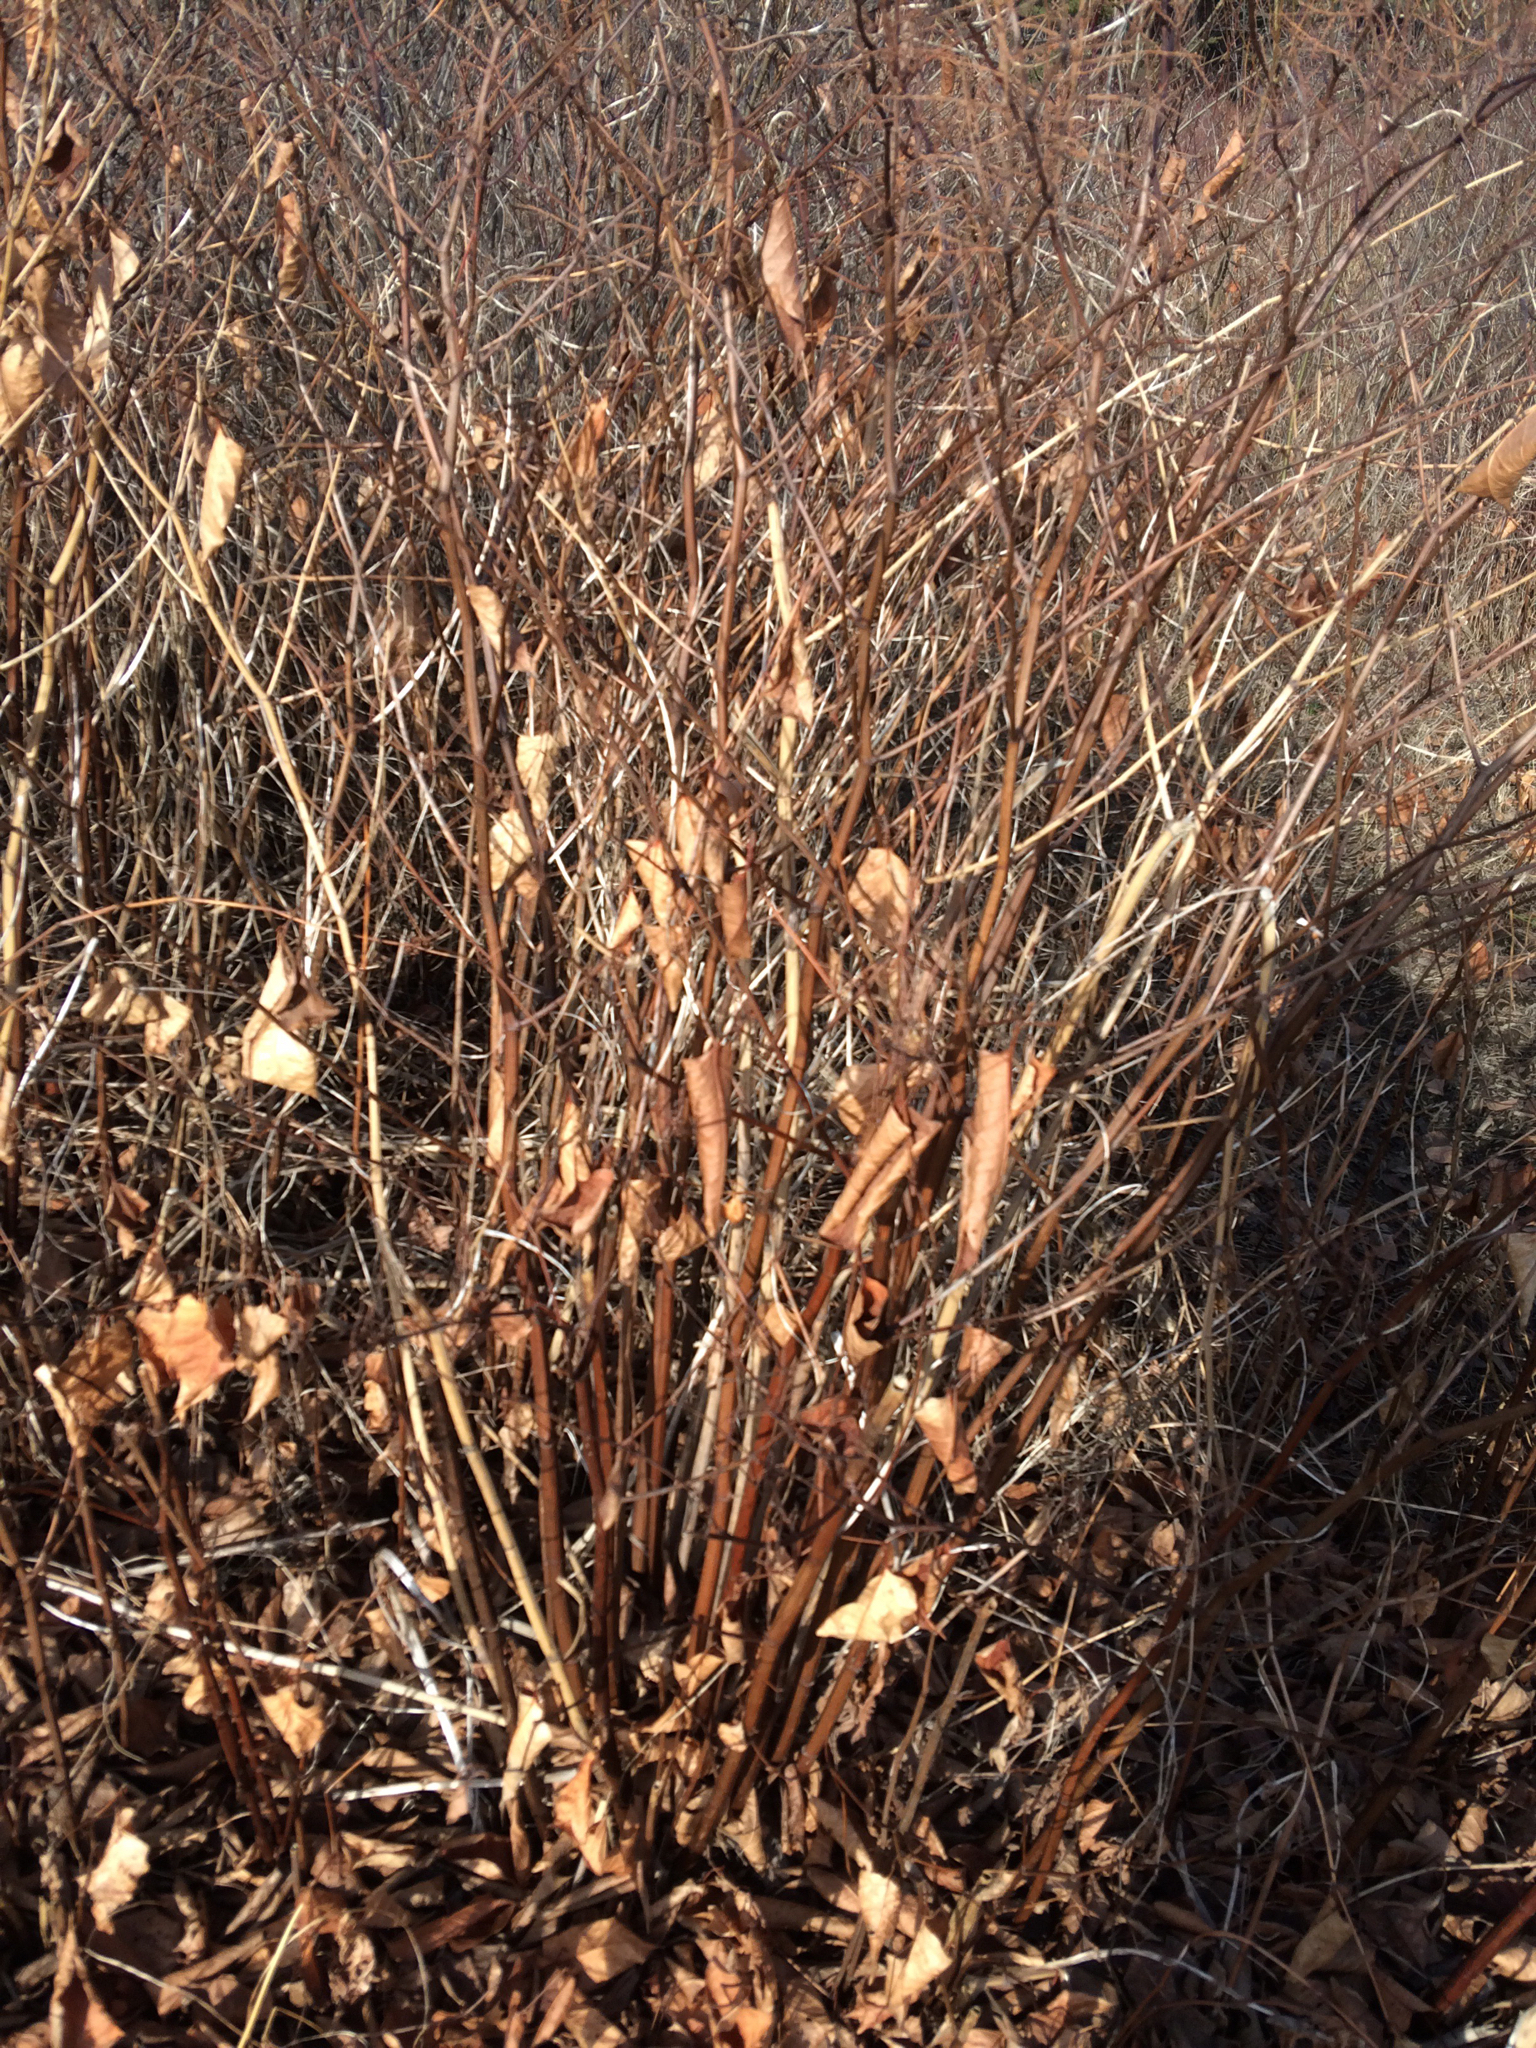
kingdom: Plantae
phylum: Tracheophyta
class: Magnoliopsida
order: Caryophyllales
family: Polygonaceae
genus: Reynoutria
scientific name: Reynoutria japonica
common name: Japanese knotweed
